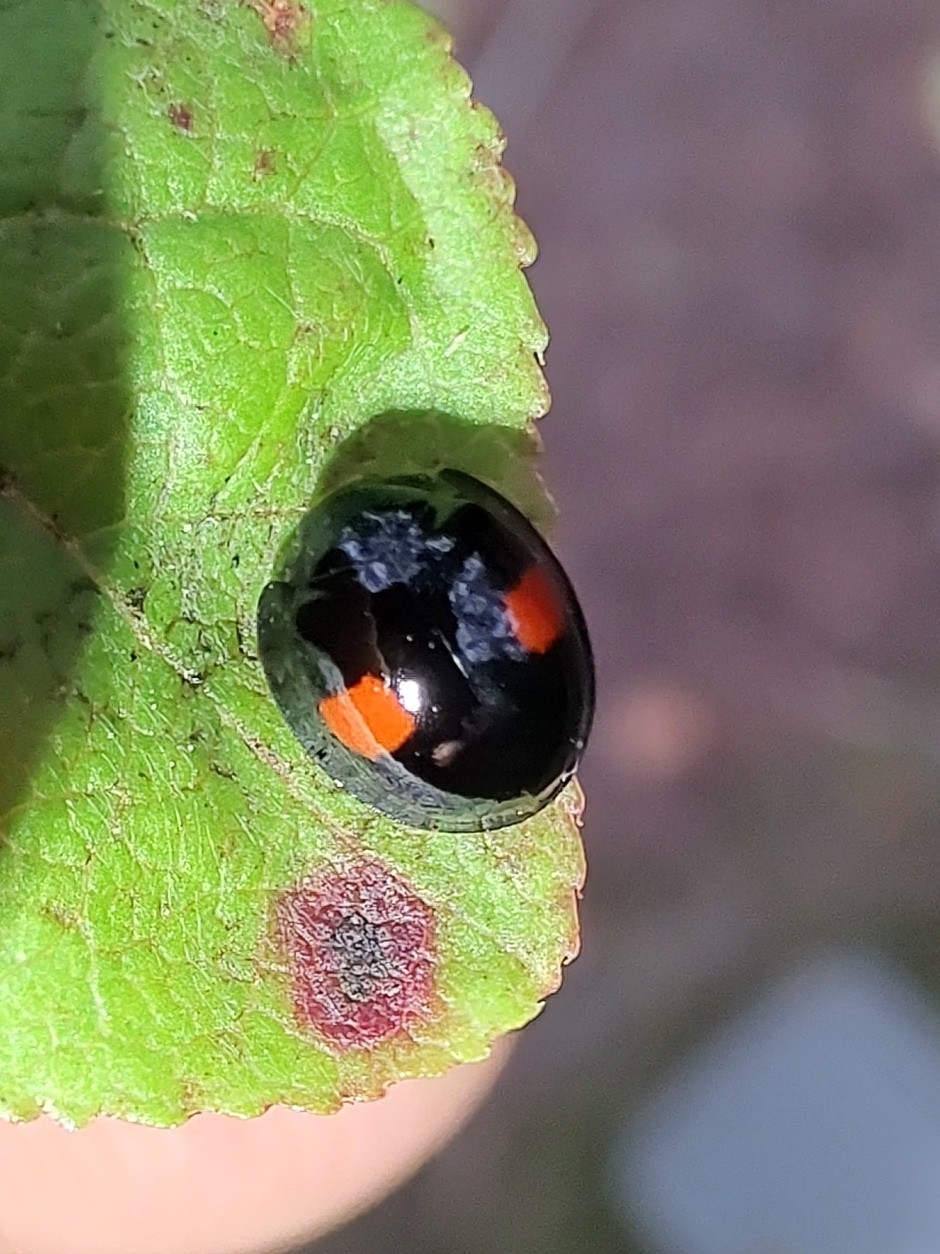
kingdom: Animalia
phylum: Arthropoda
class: Insecta
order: Coleoptera
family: Coccinellidae
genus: Chilocorus
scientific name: Chilocorus renipustulatus
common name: Kidney-spot ladybird
